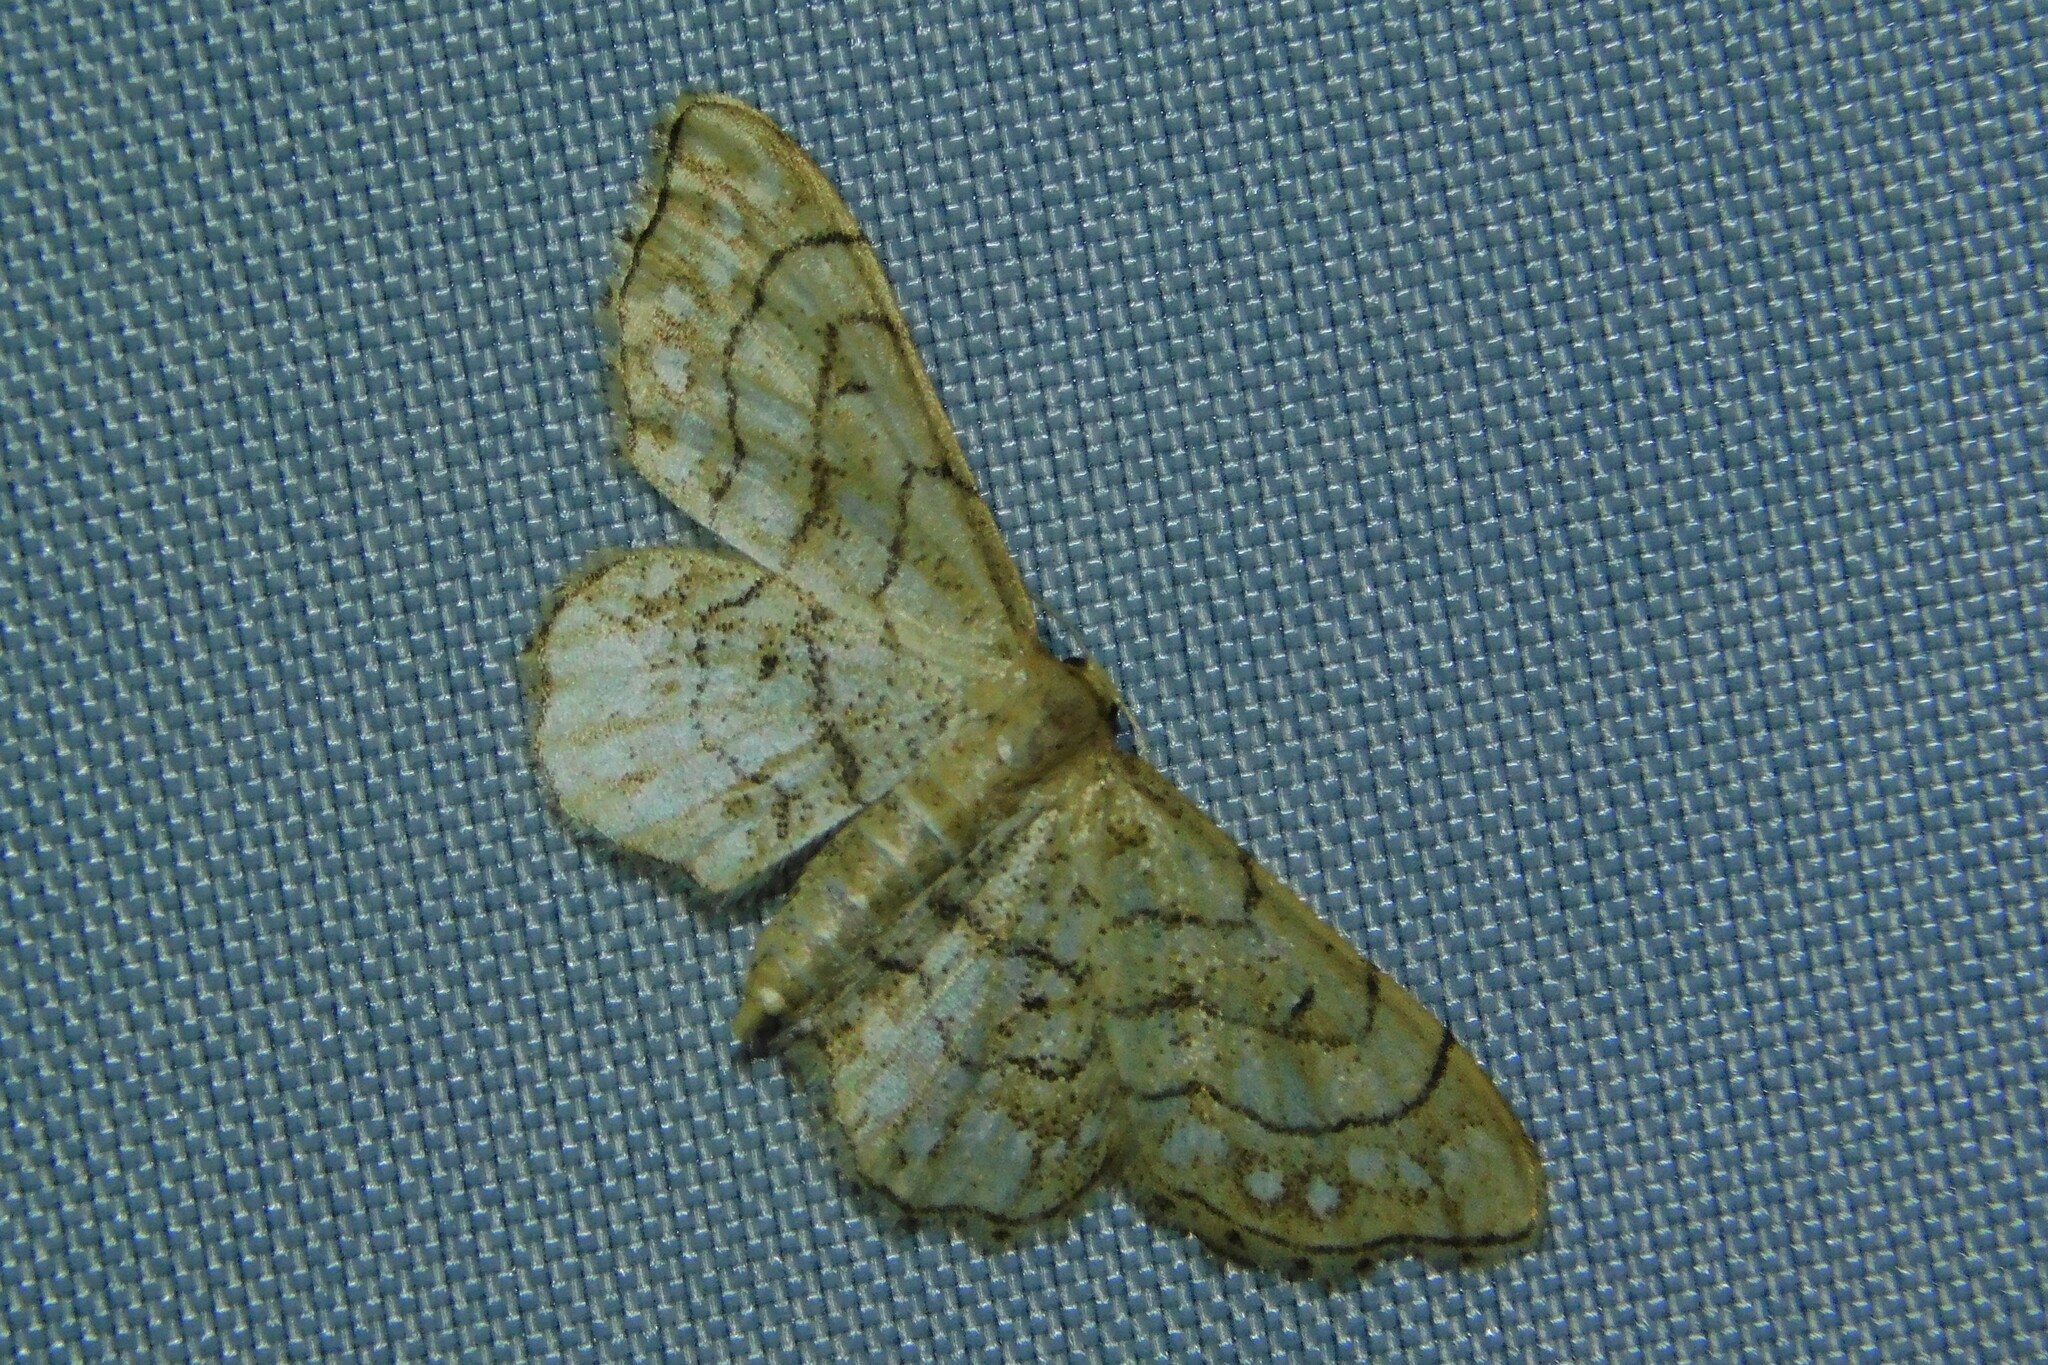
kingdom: Animalia
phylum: Arthropoda
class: Insecta
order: Lepidoptera
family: Geometridae
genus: Idaea
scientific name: Idaea moniliata
